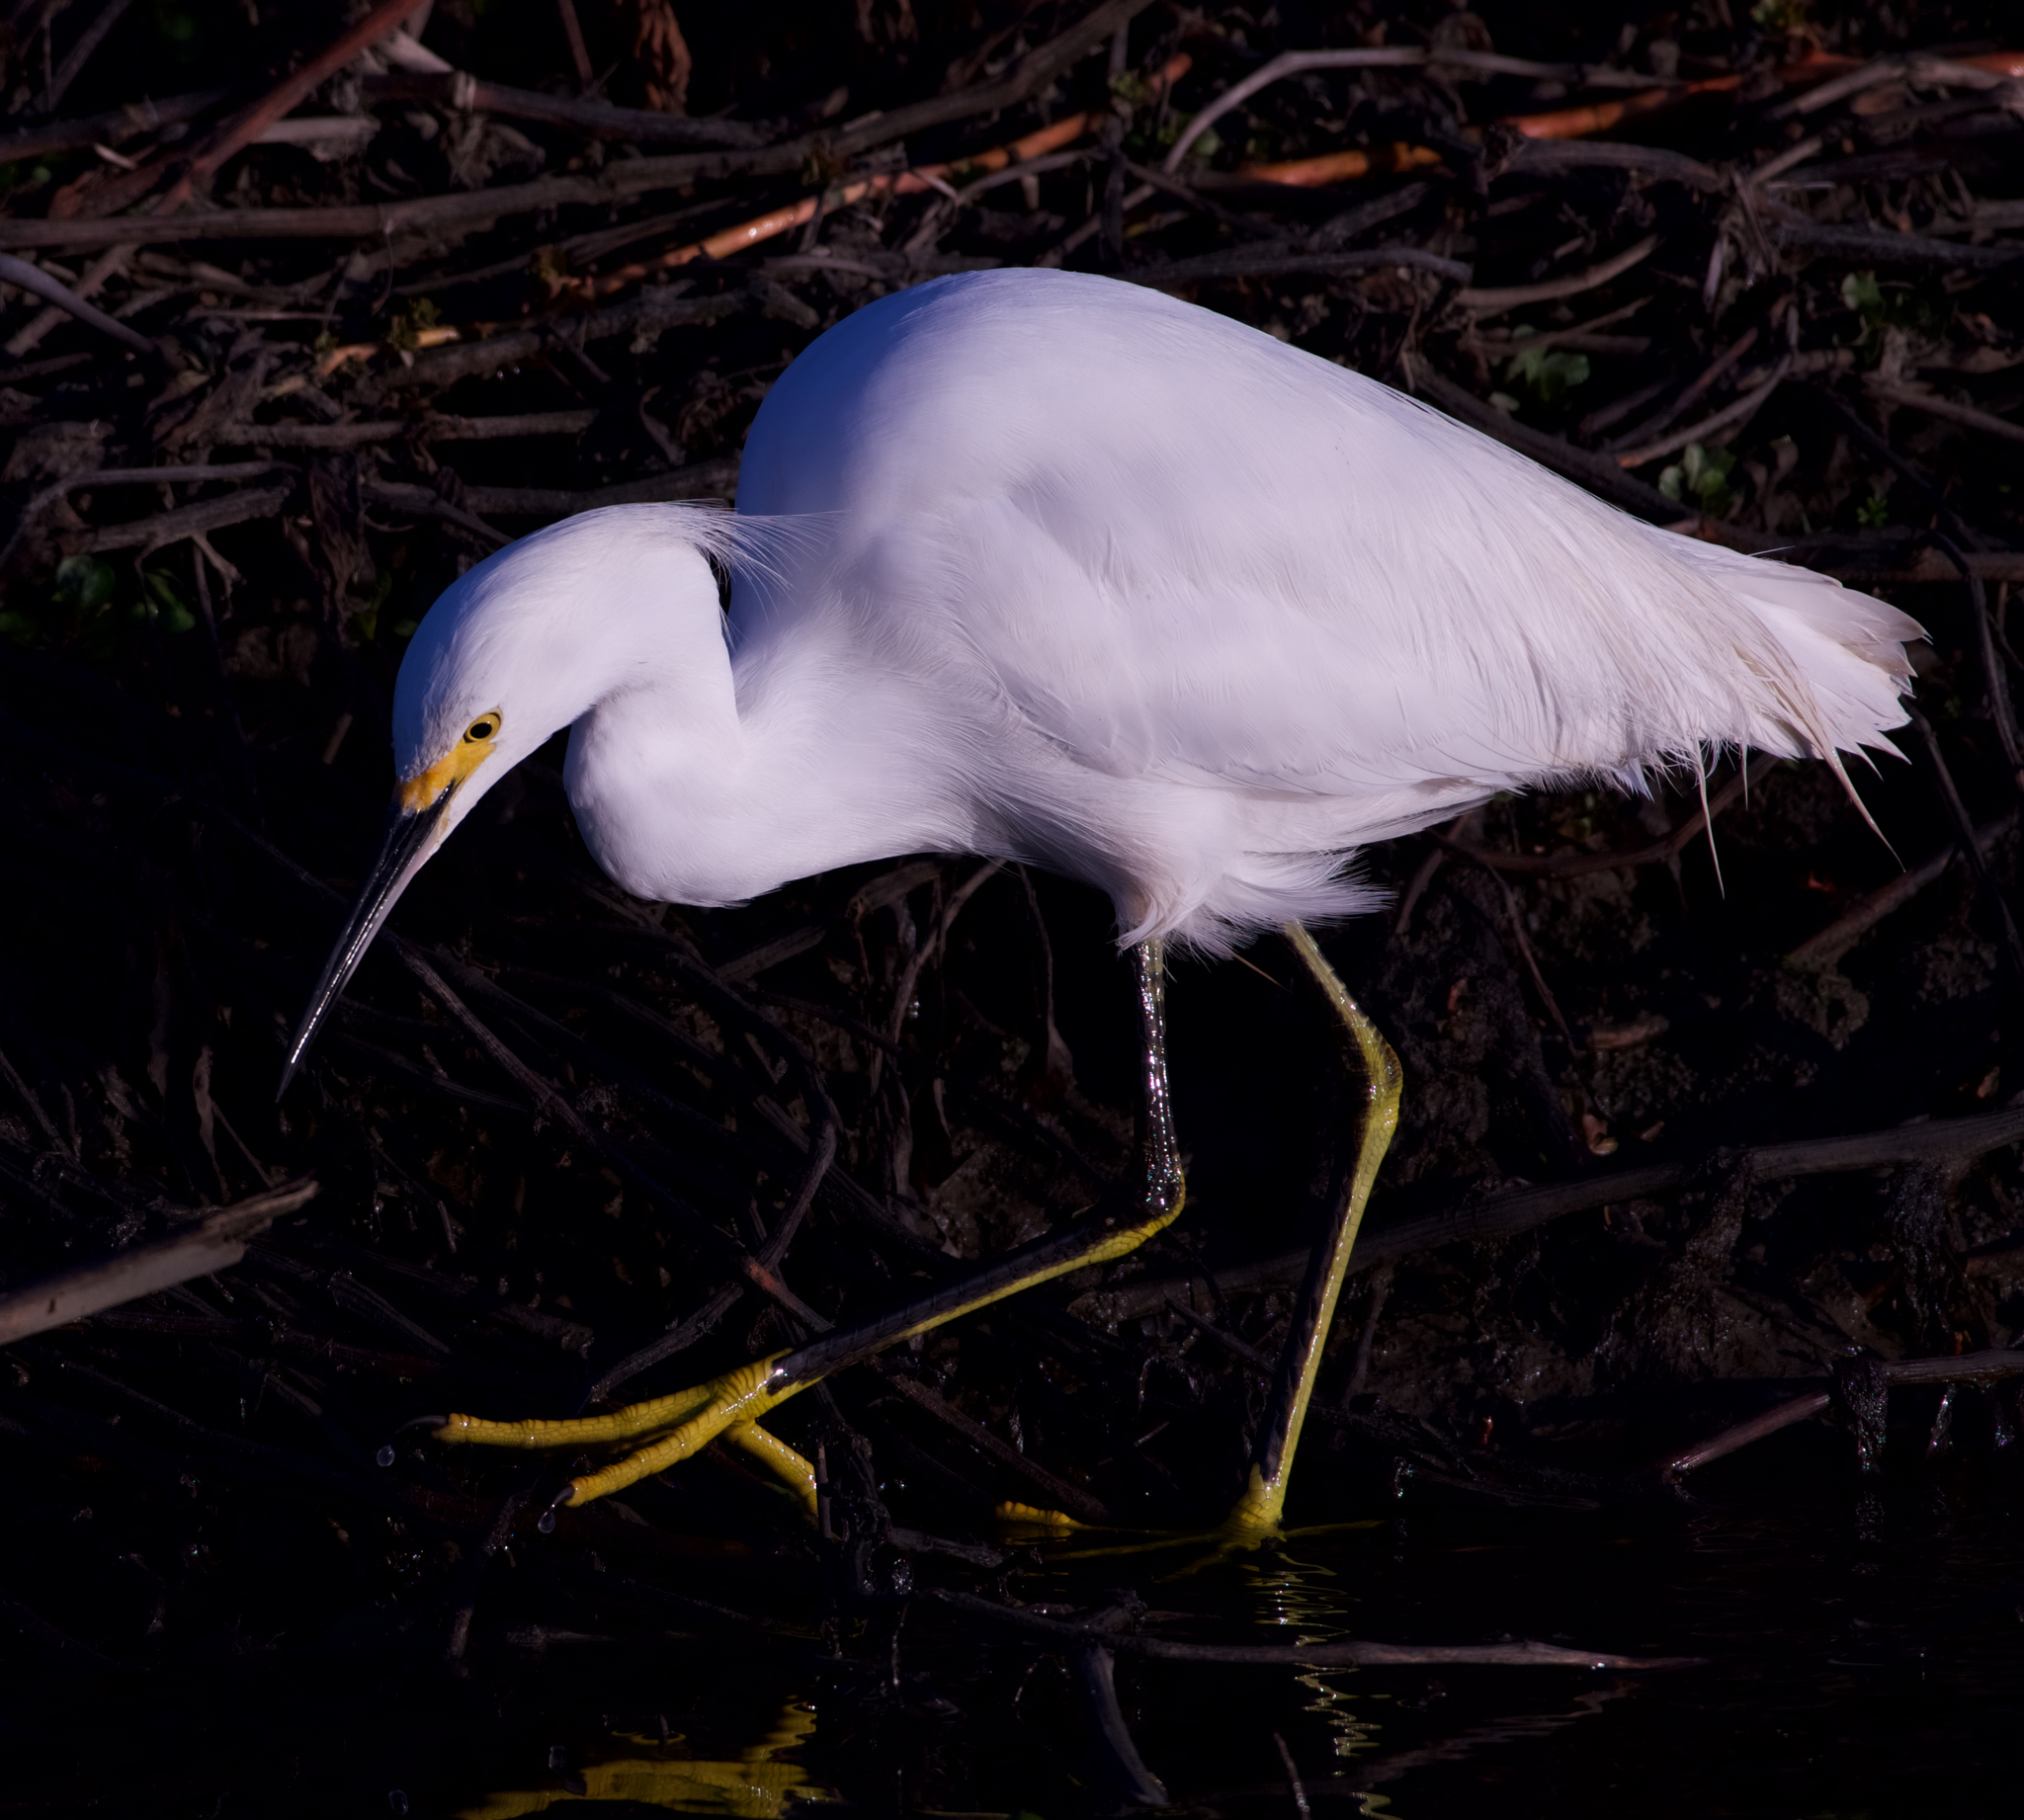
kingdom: Animalia
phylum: Chordata
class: Aves
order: Pelecaniformes
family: Ardeidae
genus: Egretta
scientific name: Egretta thula
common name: Snowy egret
